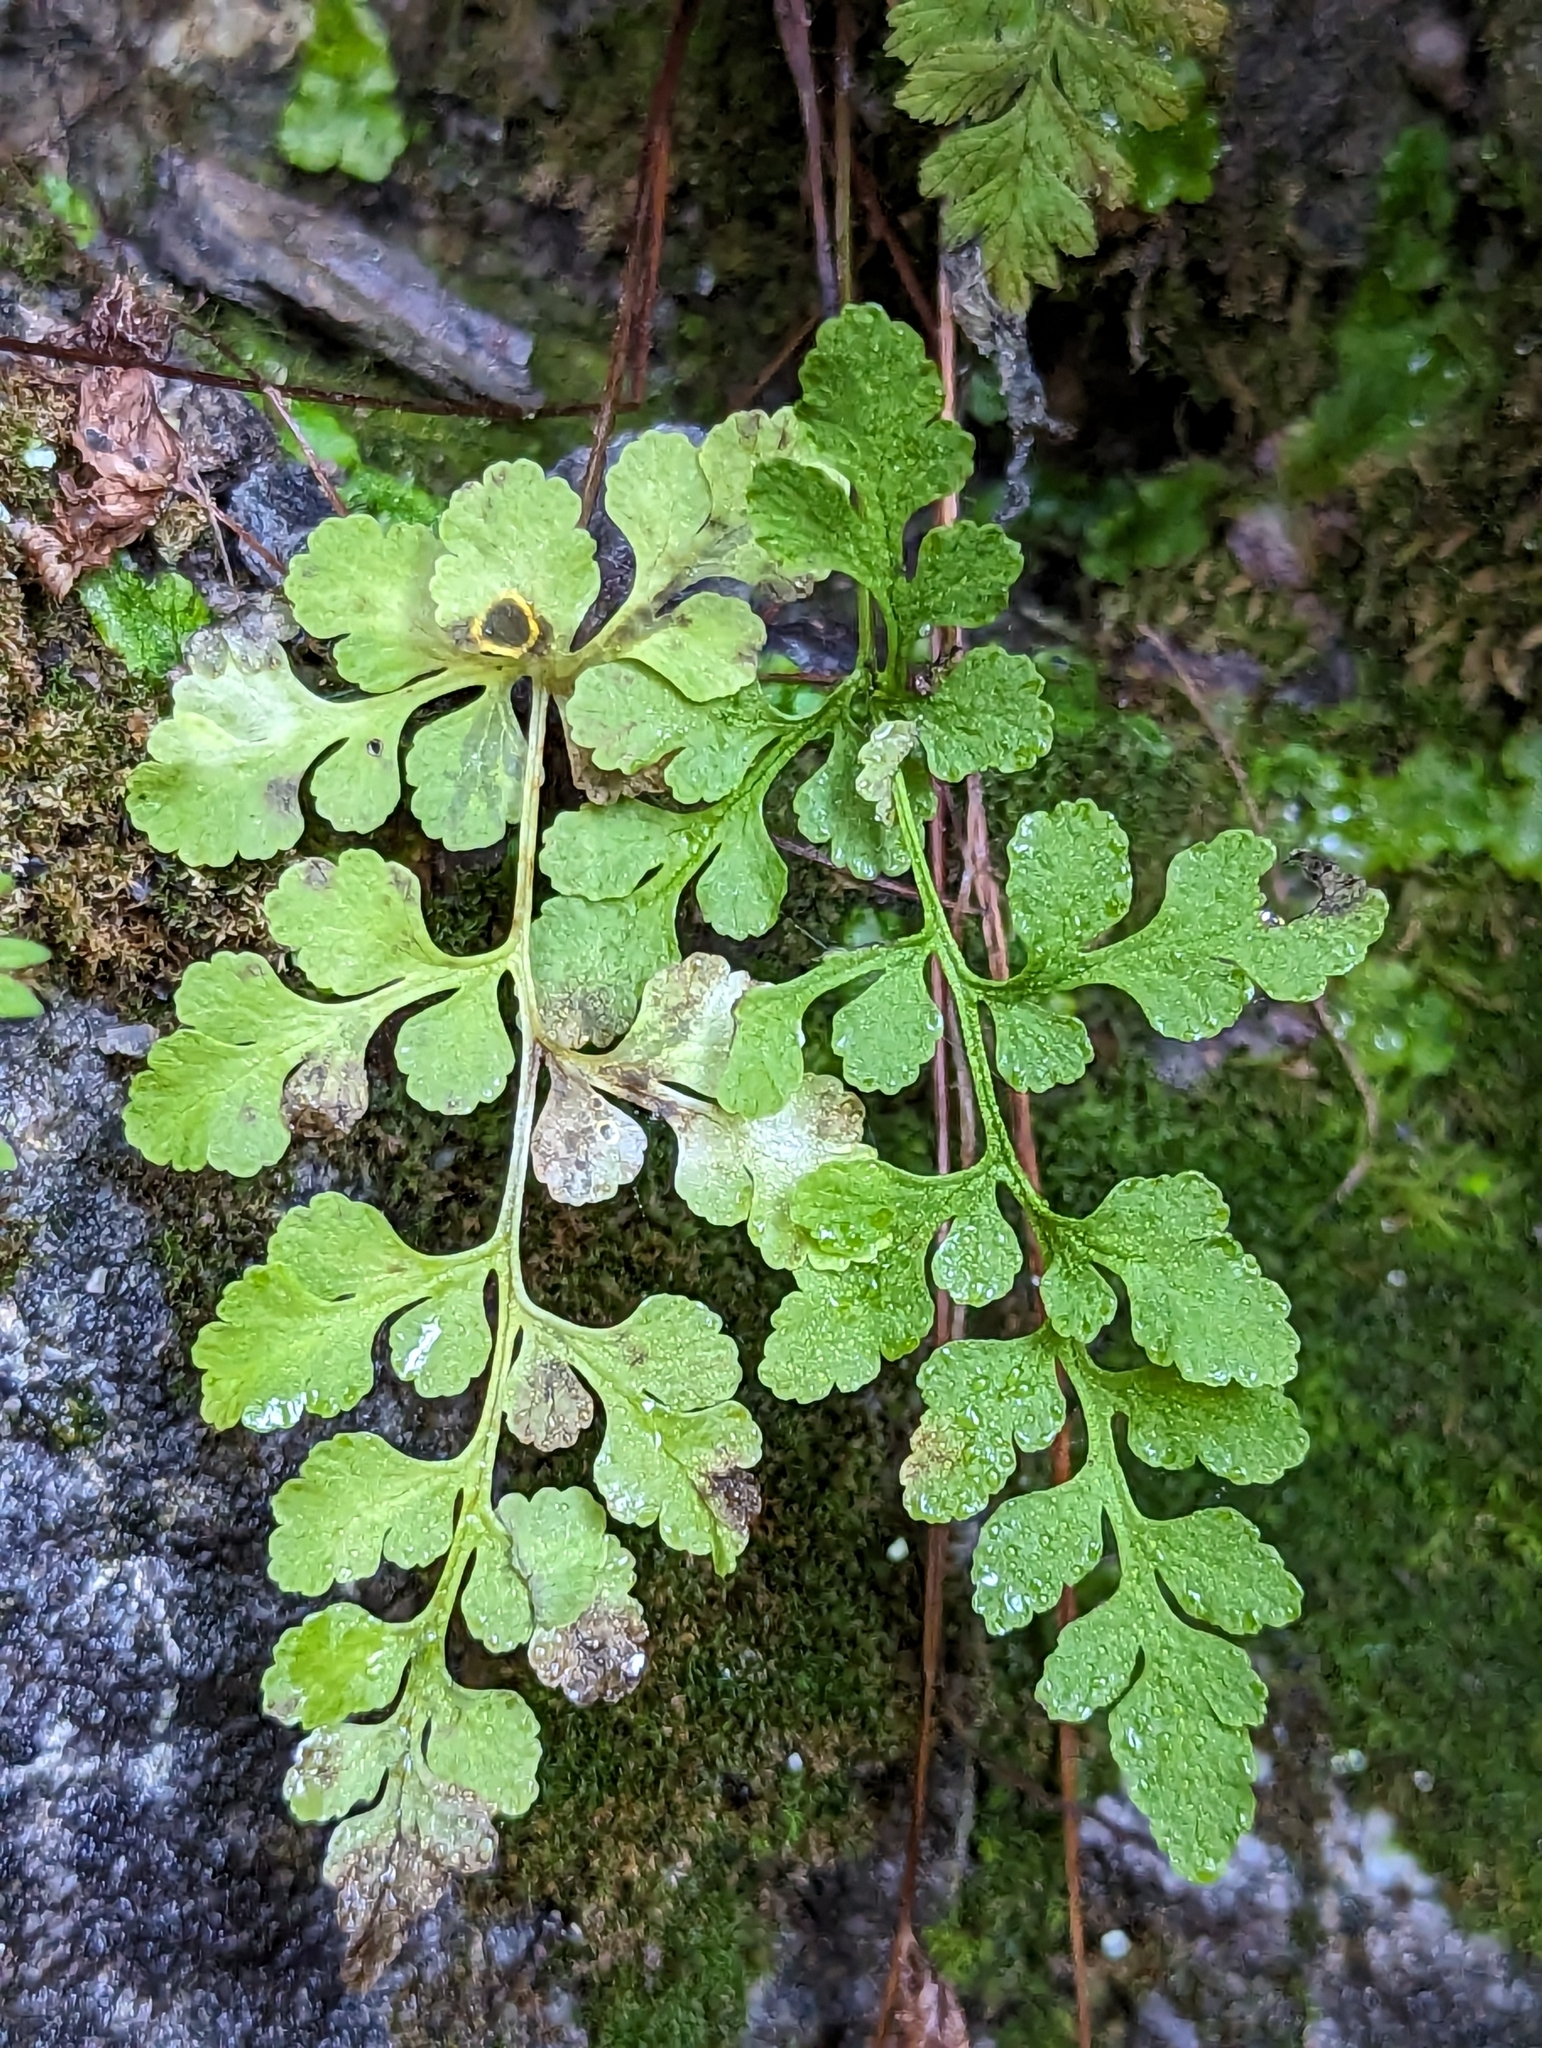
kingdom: Plantae
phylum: Tracheophyta
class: Polypodiopsida
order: Polypodiales
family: Pteridaceae
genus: Cryptogramma
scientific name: Cryptogramma stelleri
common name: Cliff-brake
